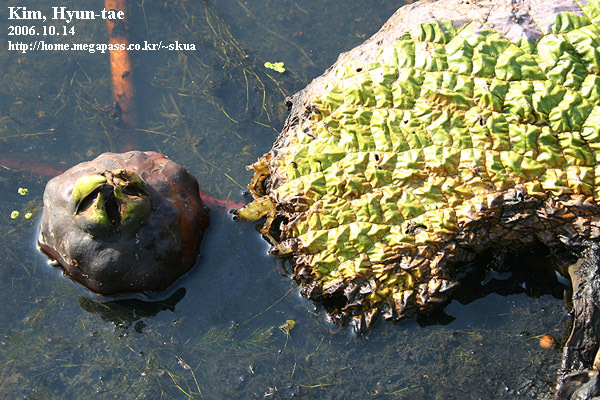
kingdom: Plantae
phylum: Tracheophyta
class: Magnoliopsida
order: Nymphaeales
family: Nymphaeaceae
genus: Euryale
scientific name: Euryale ferox
